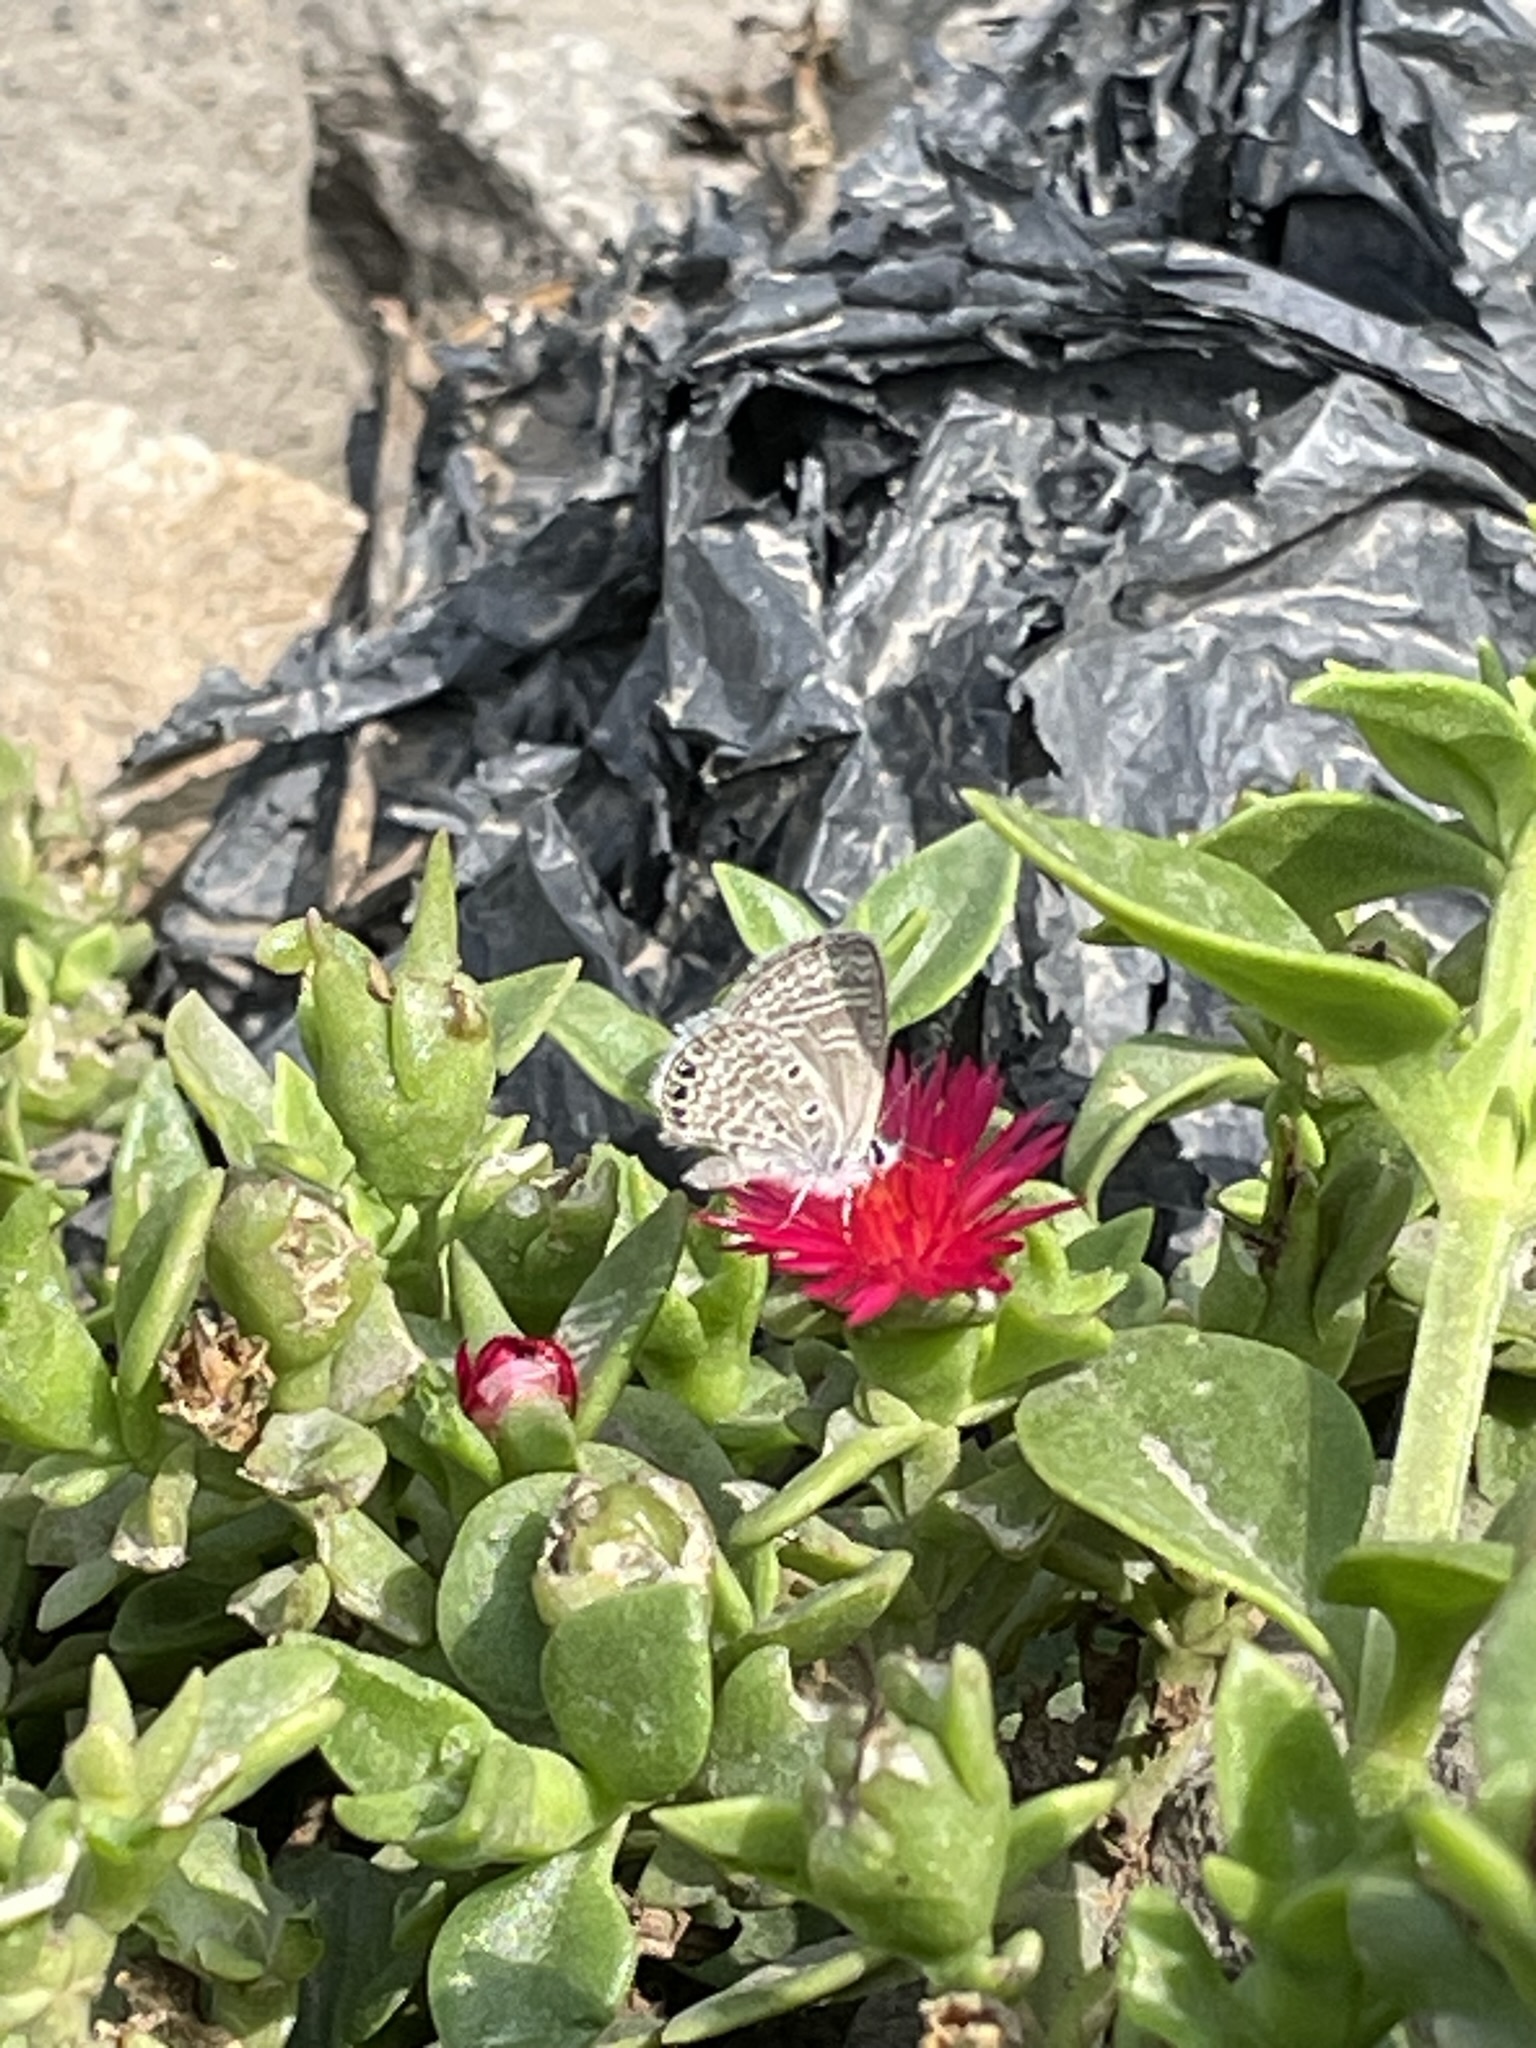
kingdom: Animalia
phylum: Arthropoda
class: Insecta
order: Lepidoptera
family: Lycaenidae
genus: Hemiargus
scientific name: Hemiargus ramon
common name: Ramon blue
